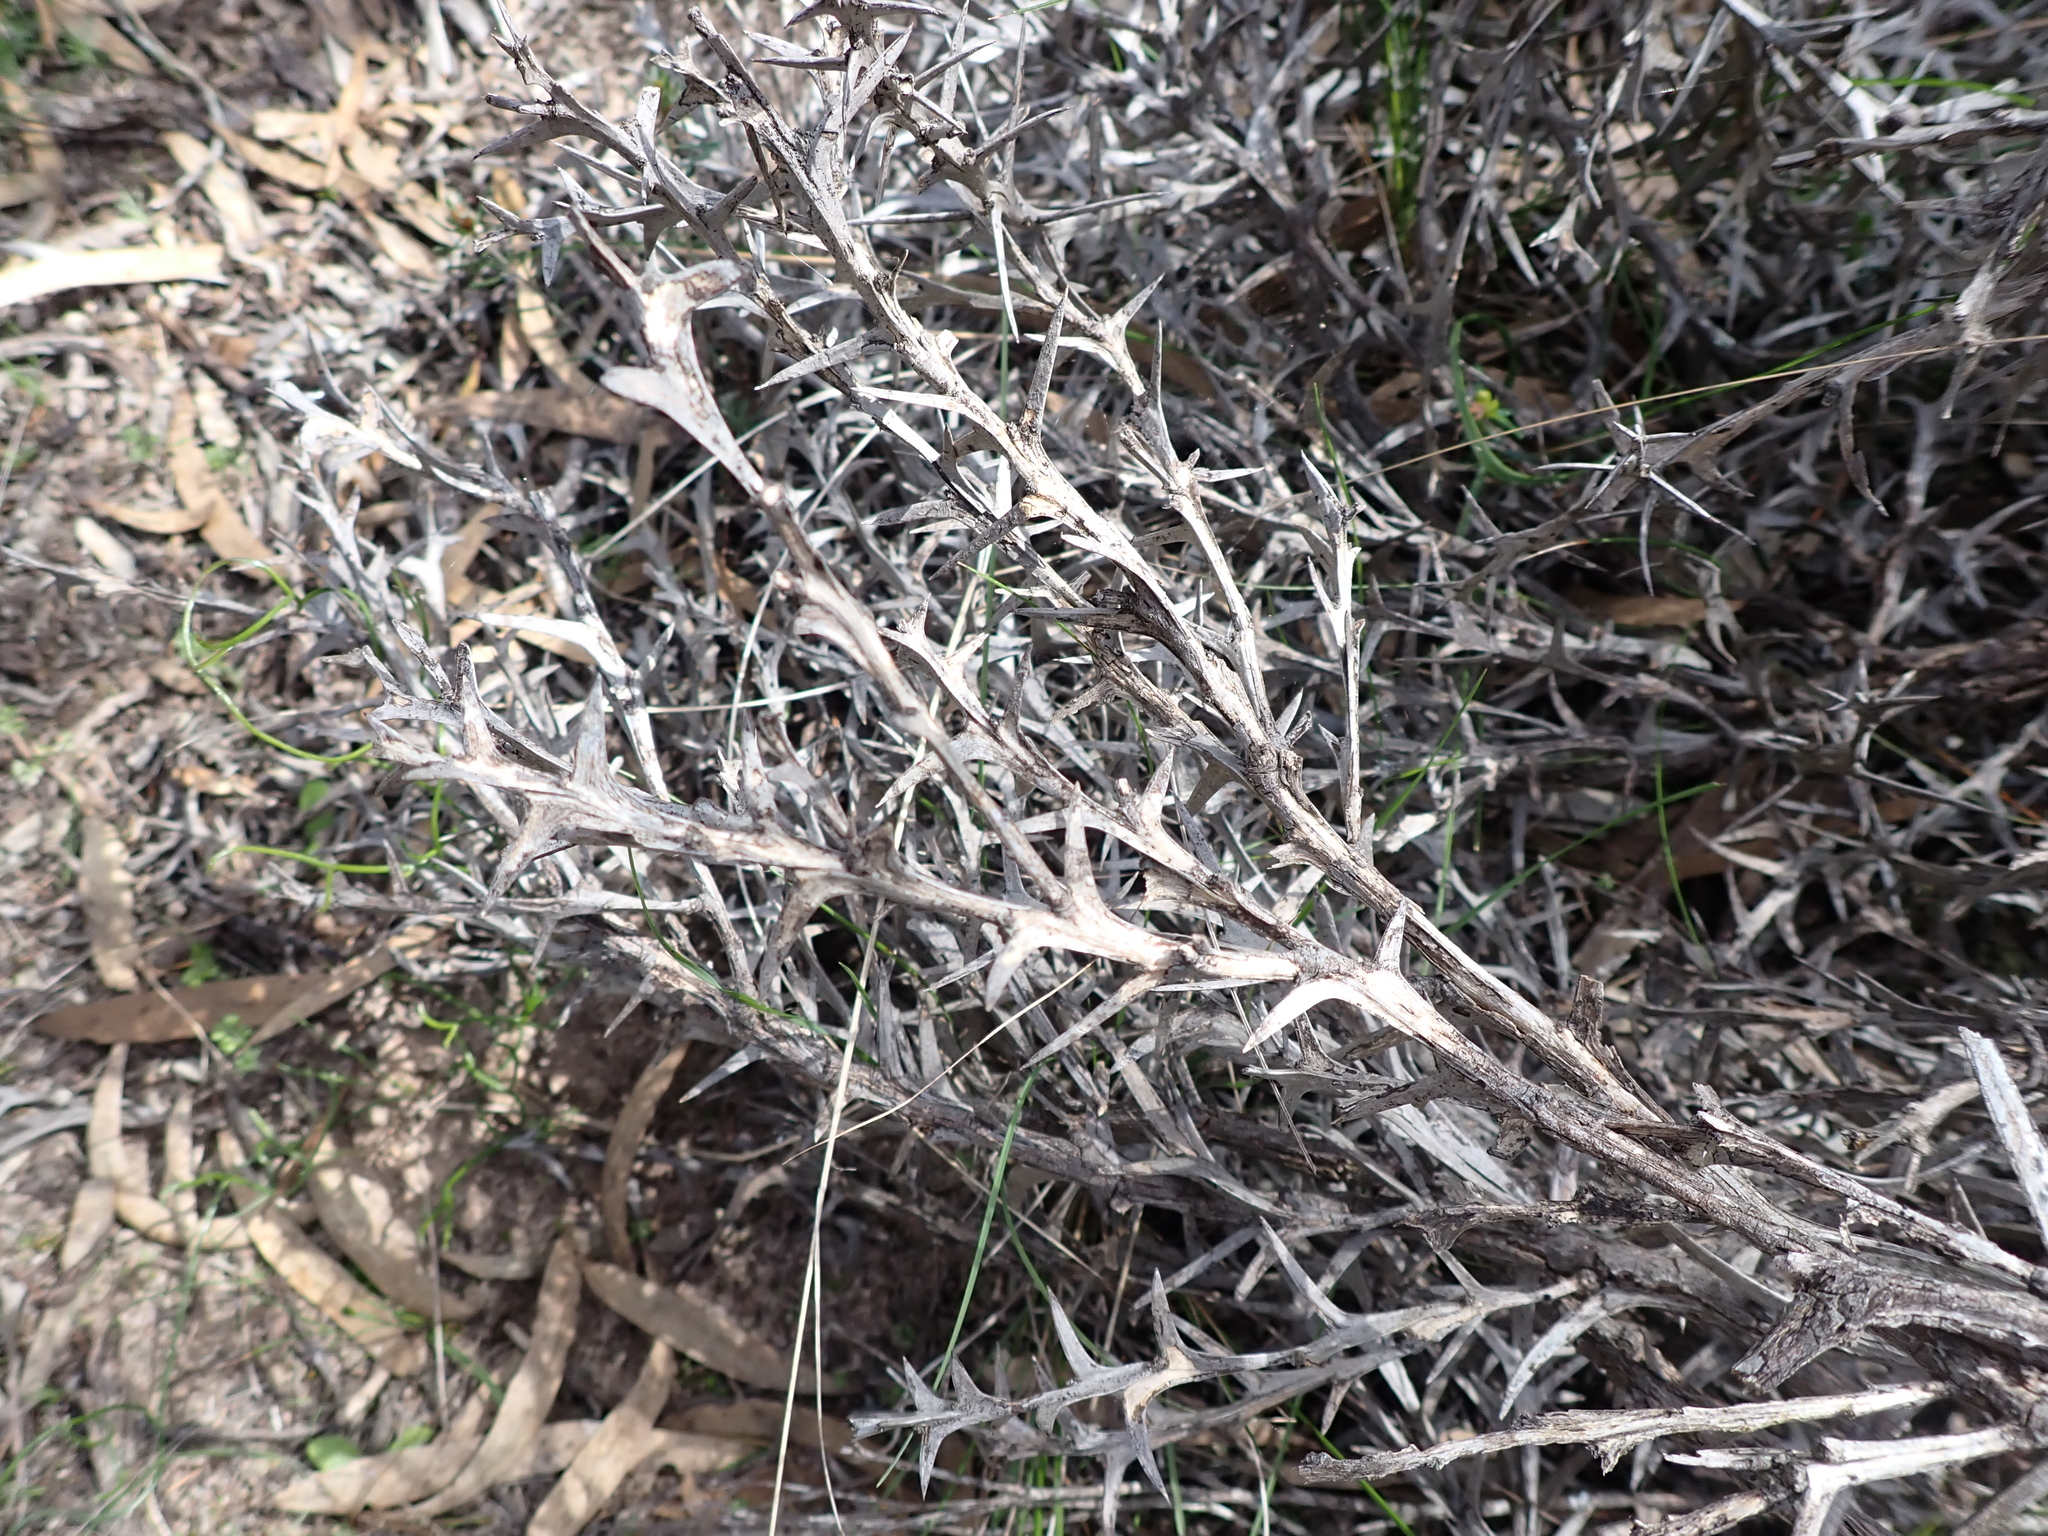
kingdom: Plantae
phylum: Tracheophyta
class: Magnoliopsida
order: Fabales
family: Fabaceae
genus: Daviesia
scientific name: Daviesia pectinata
